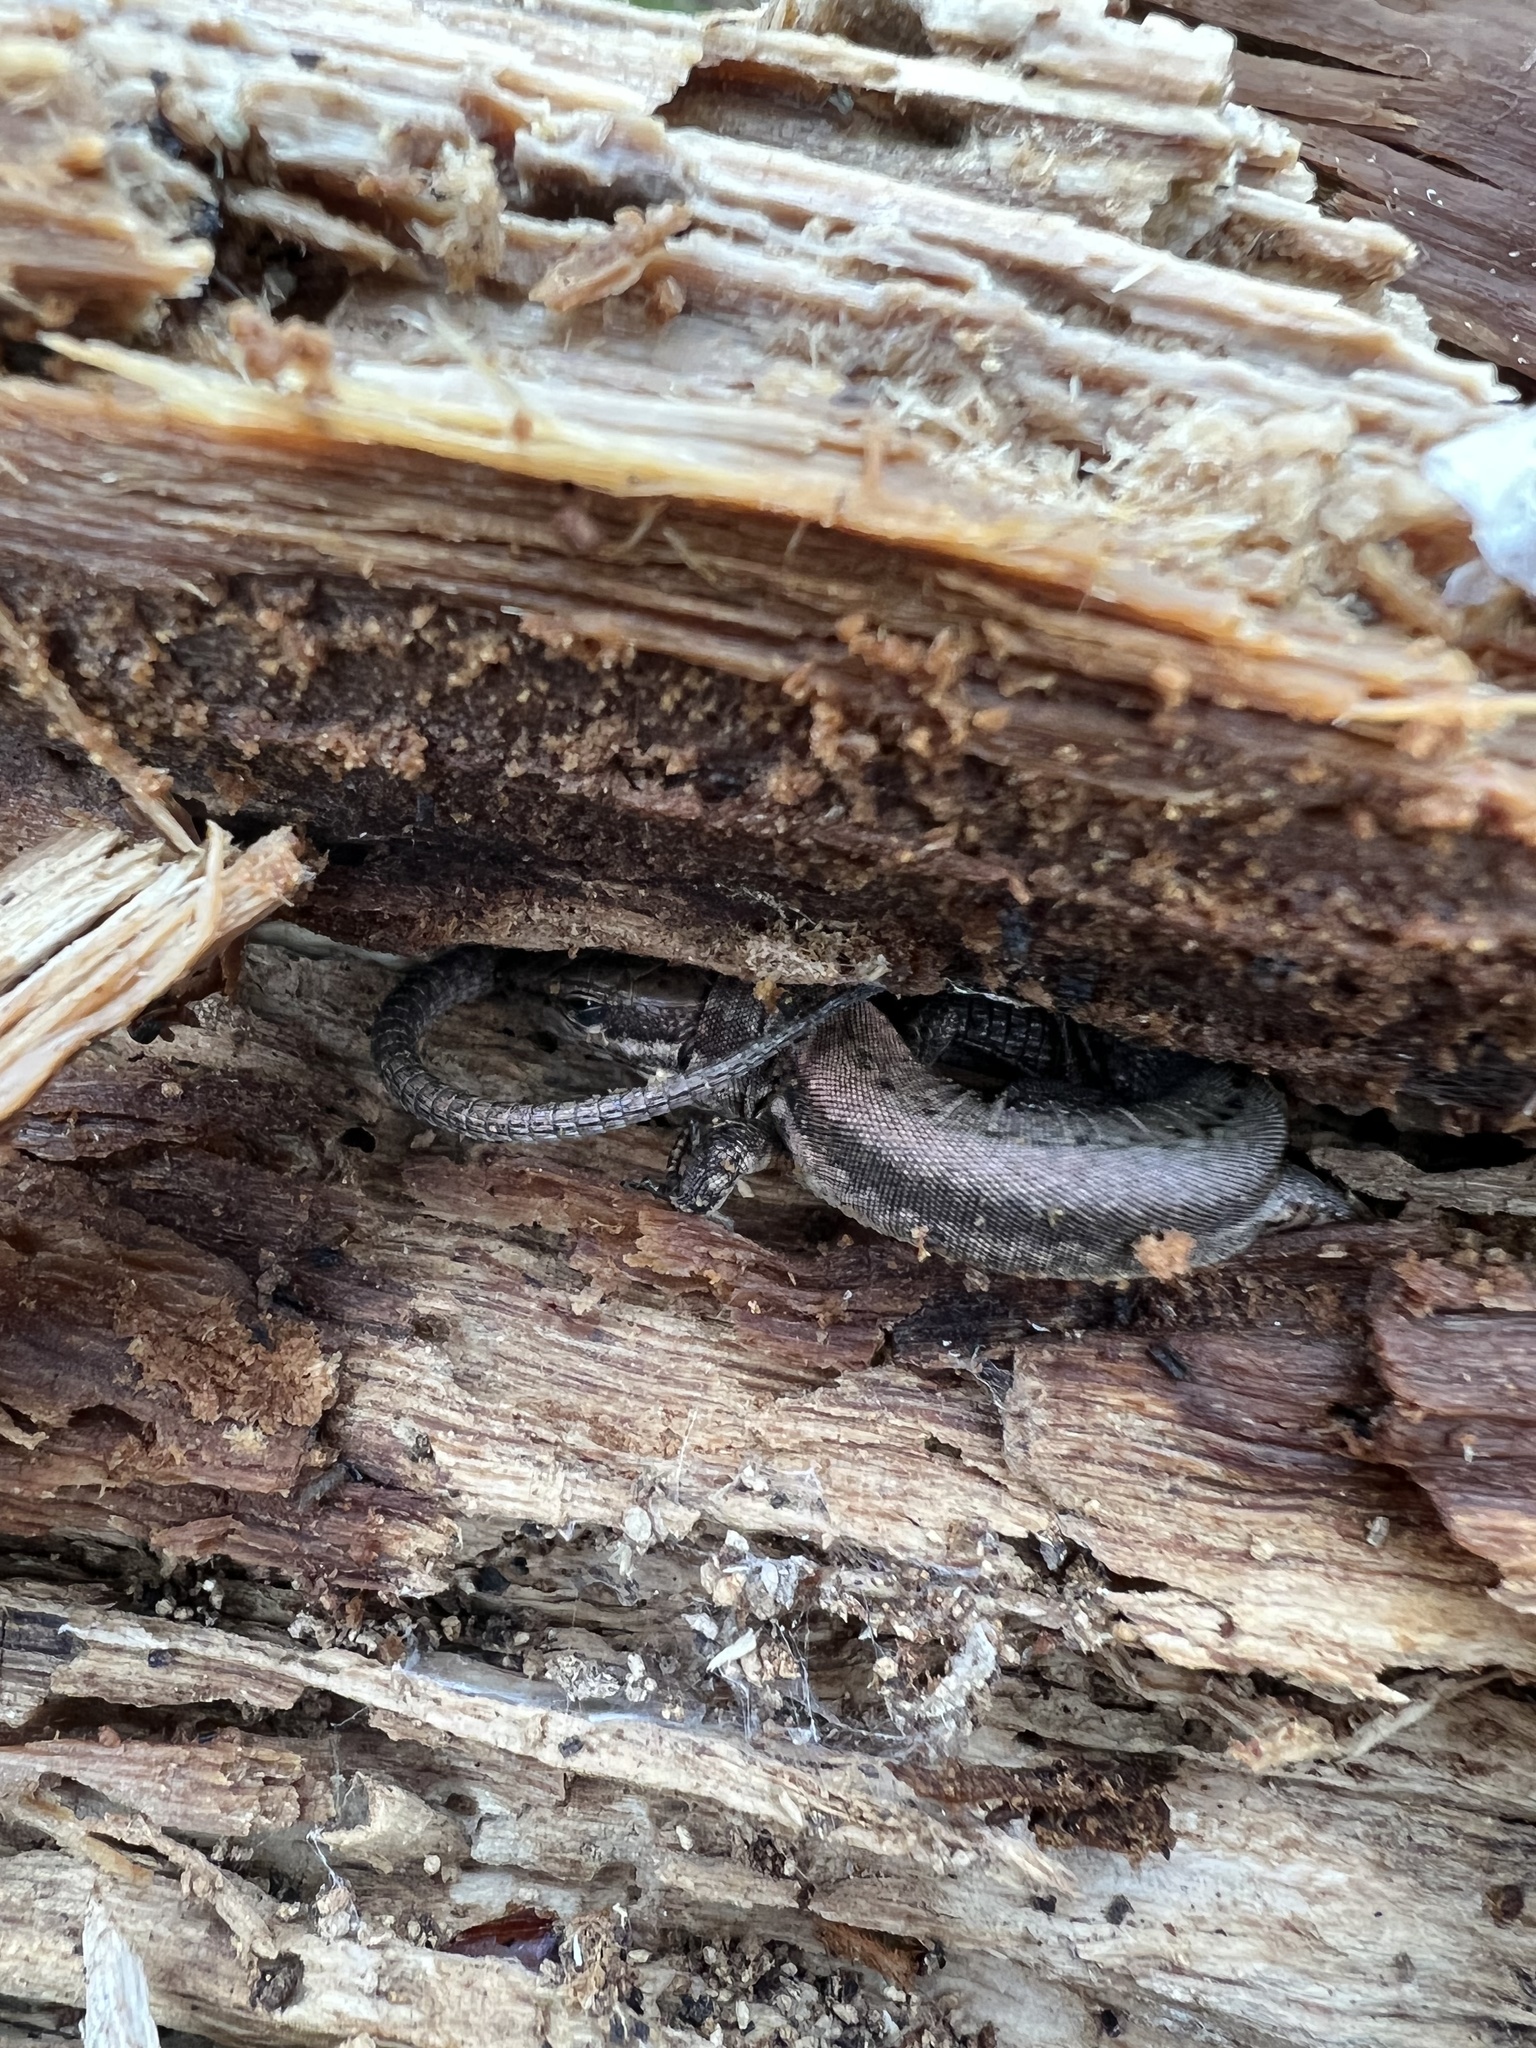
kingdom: Animalia
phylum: Chordata
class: Squamata
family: Lacertidae
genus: Podarcis
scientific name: Podarcis muralis
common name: Common wall lizard
